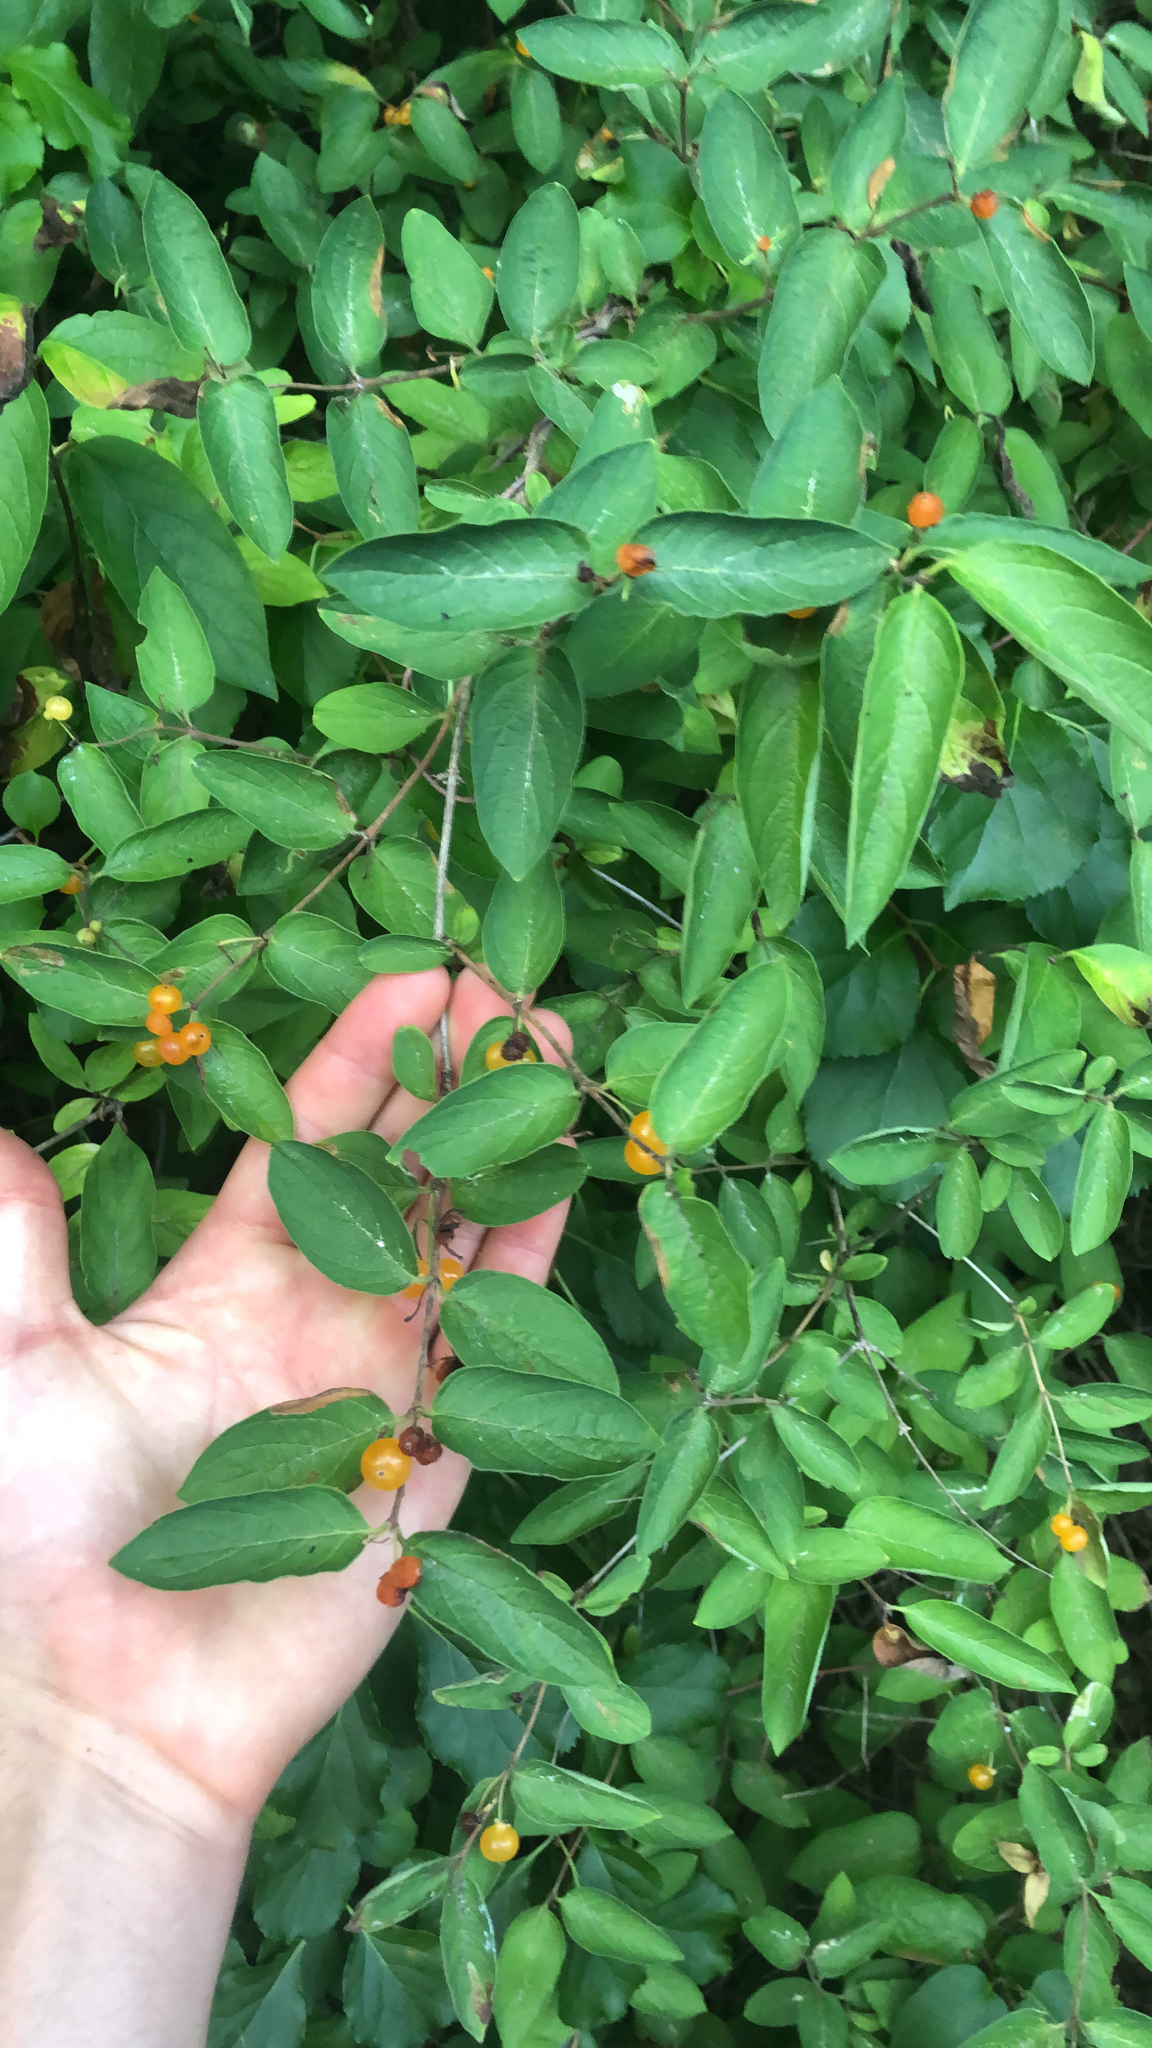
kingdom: Plantae
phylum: Tracheophyta
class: Magnoliopsida
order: Dipsacales
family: Caprifoliaceae
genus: Lonicera
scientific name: Lonicera
